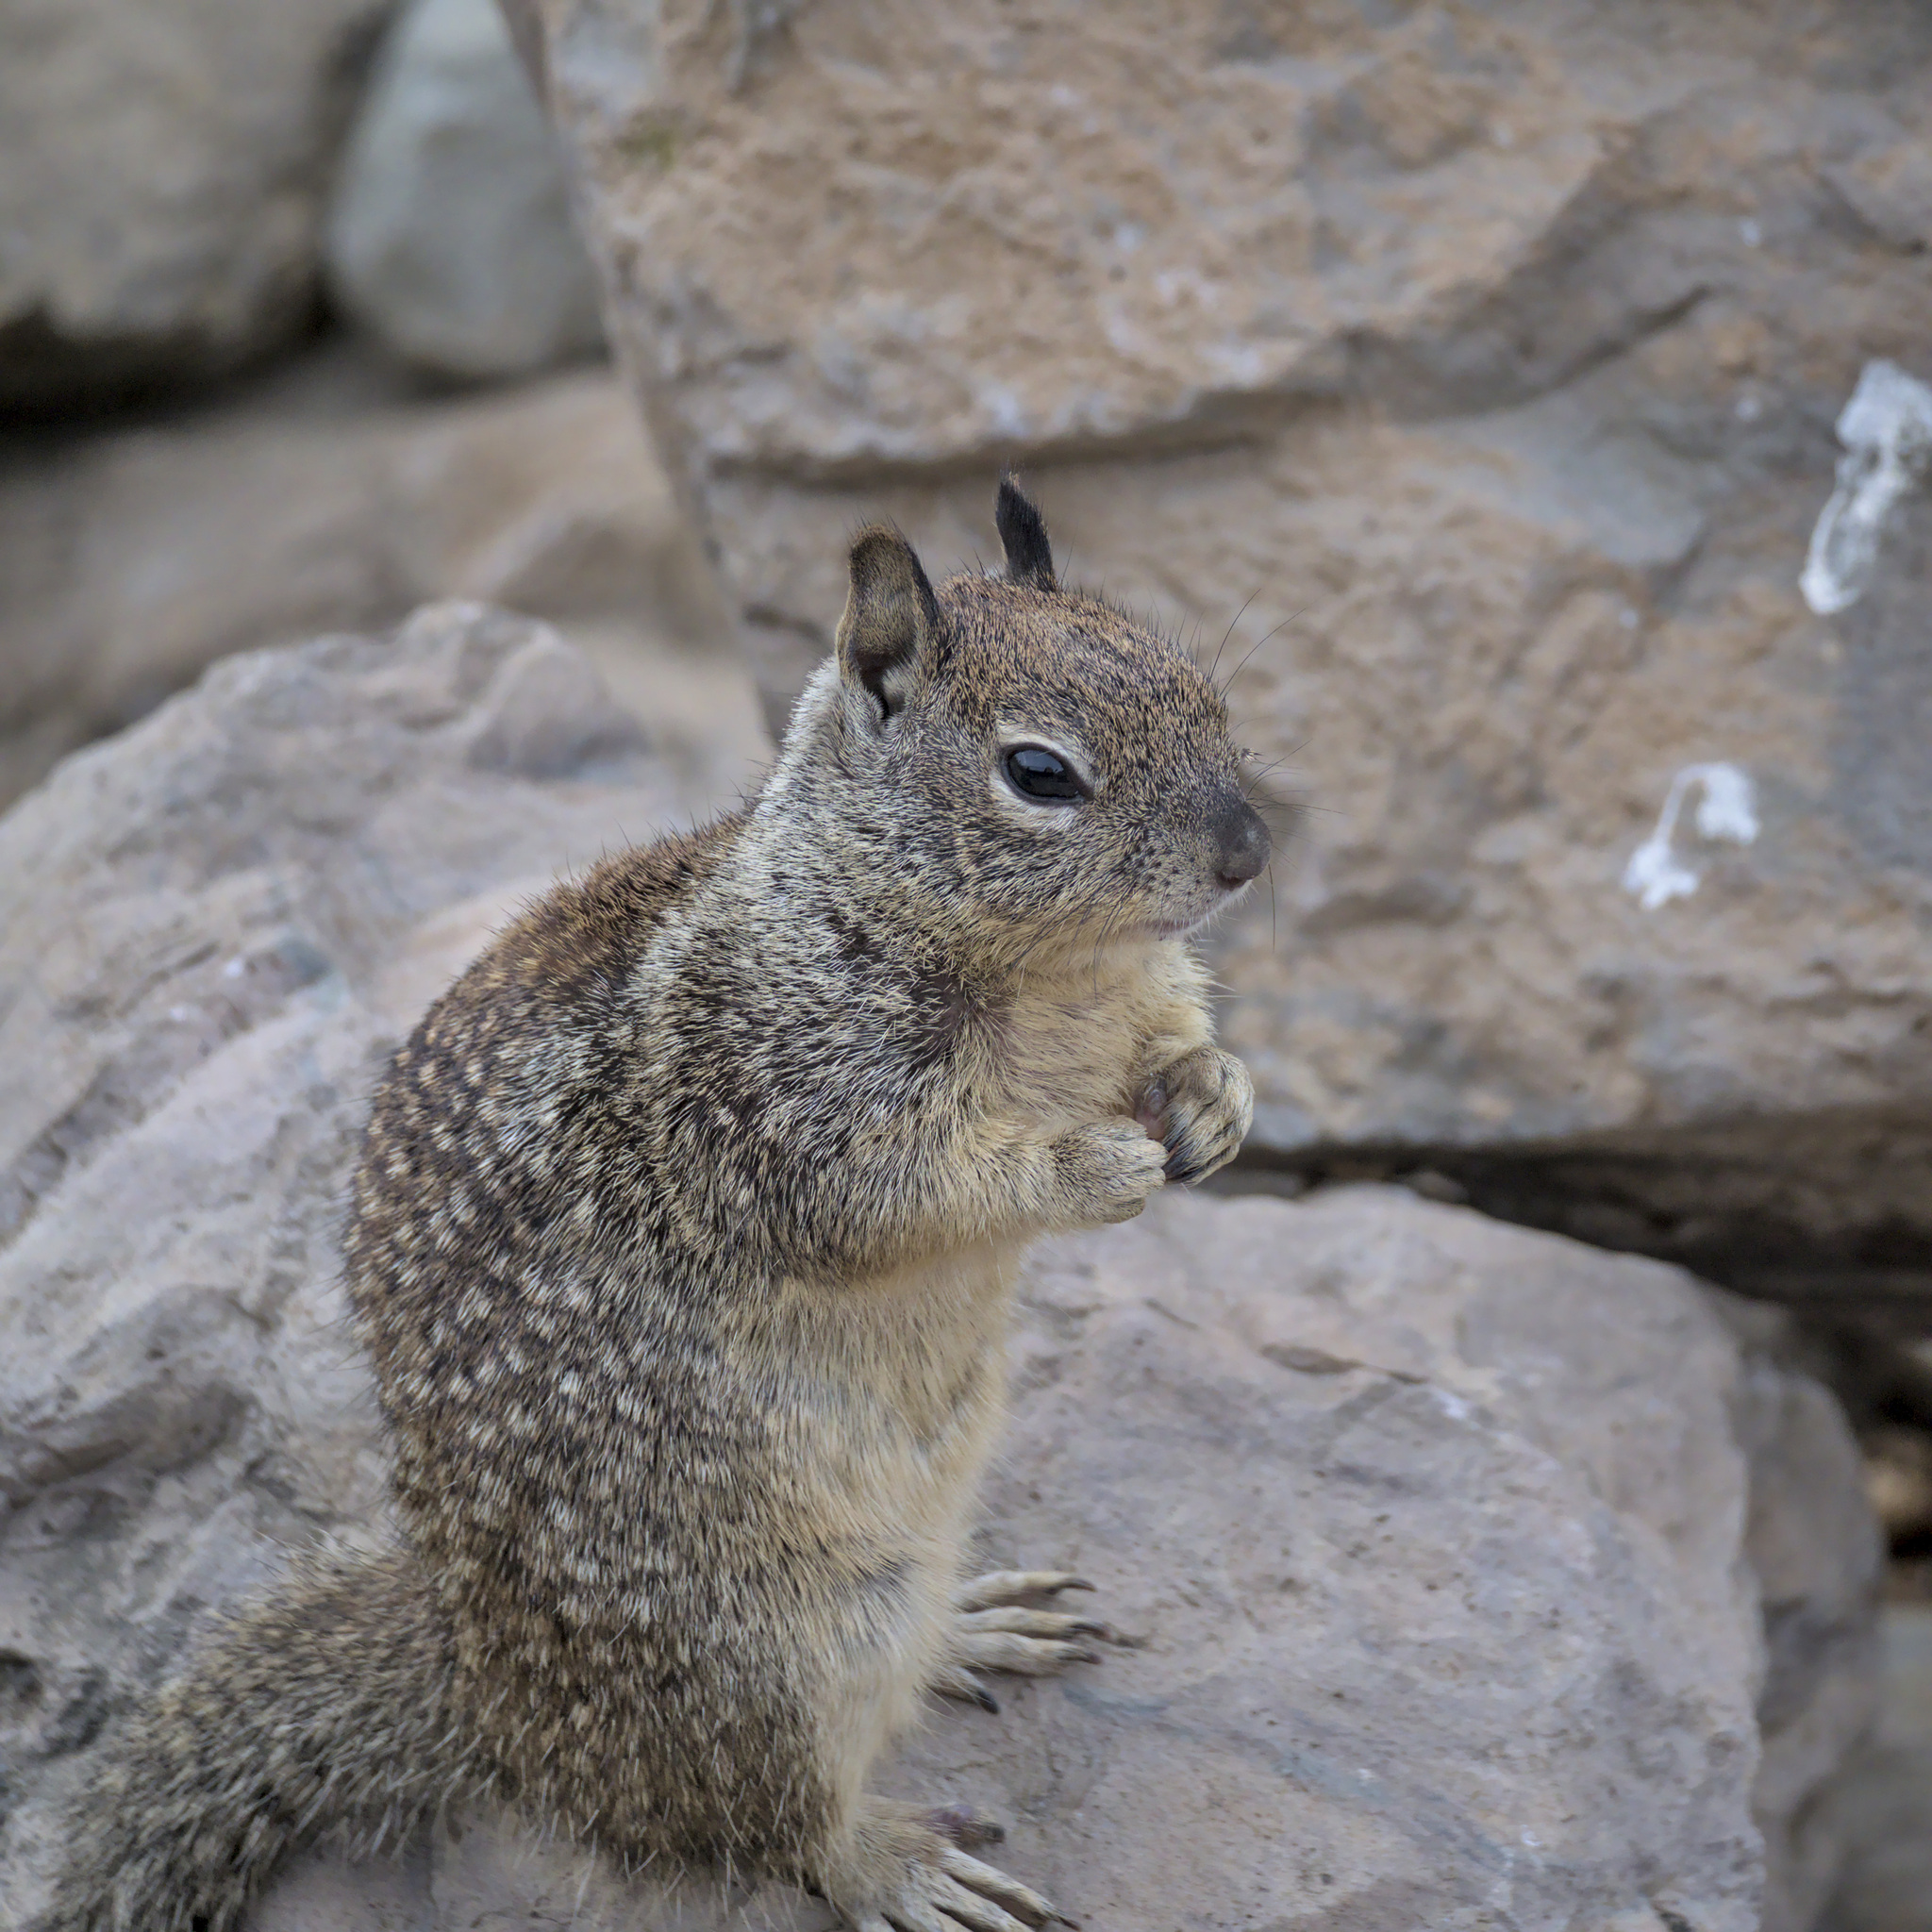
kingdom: Animalia
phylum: Chordata
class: Mammalia
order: Rodentia
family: Sciuridae
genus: Otospermophilus
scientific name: Otospermophilus beecheyi
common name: California ground squirrel
